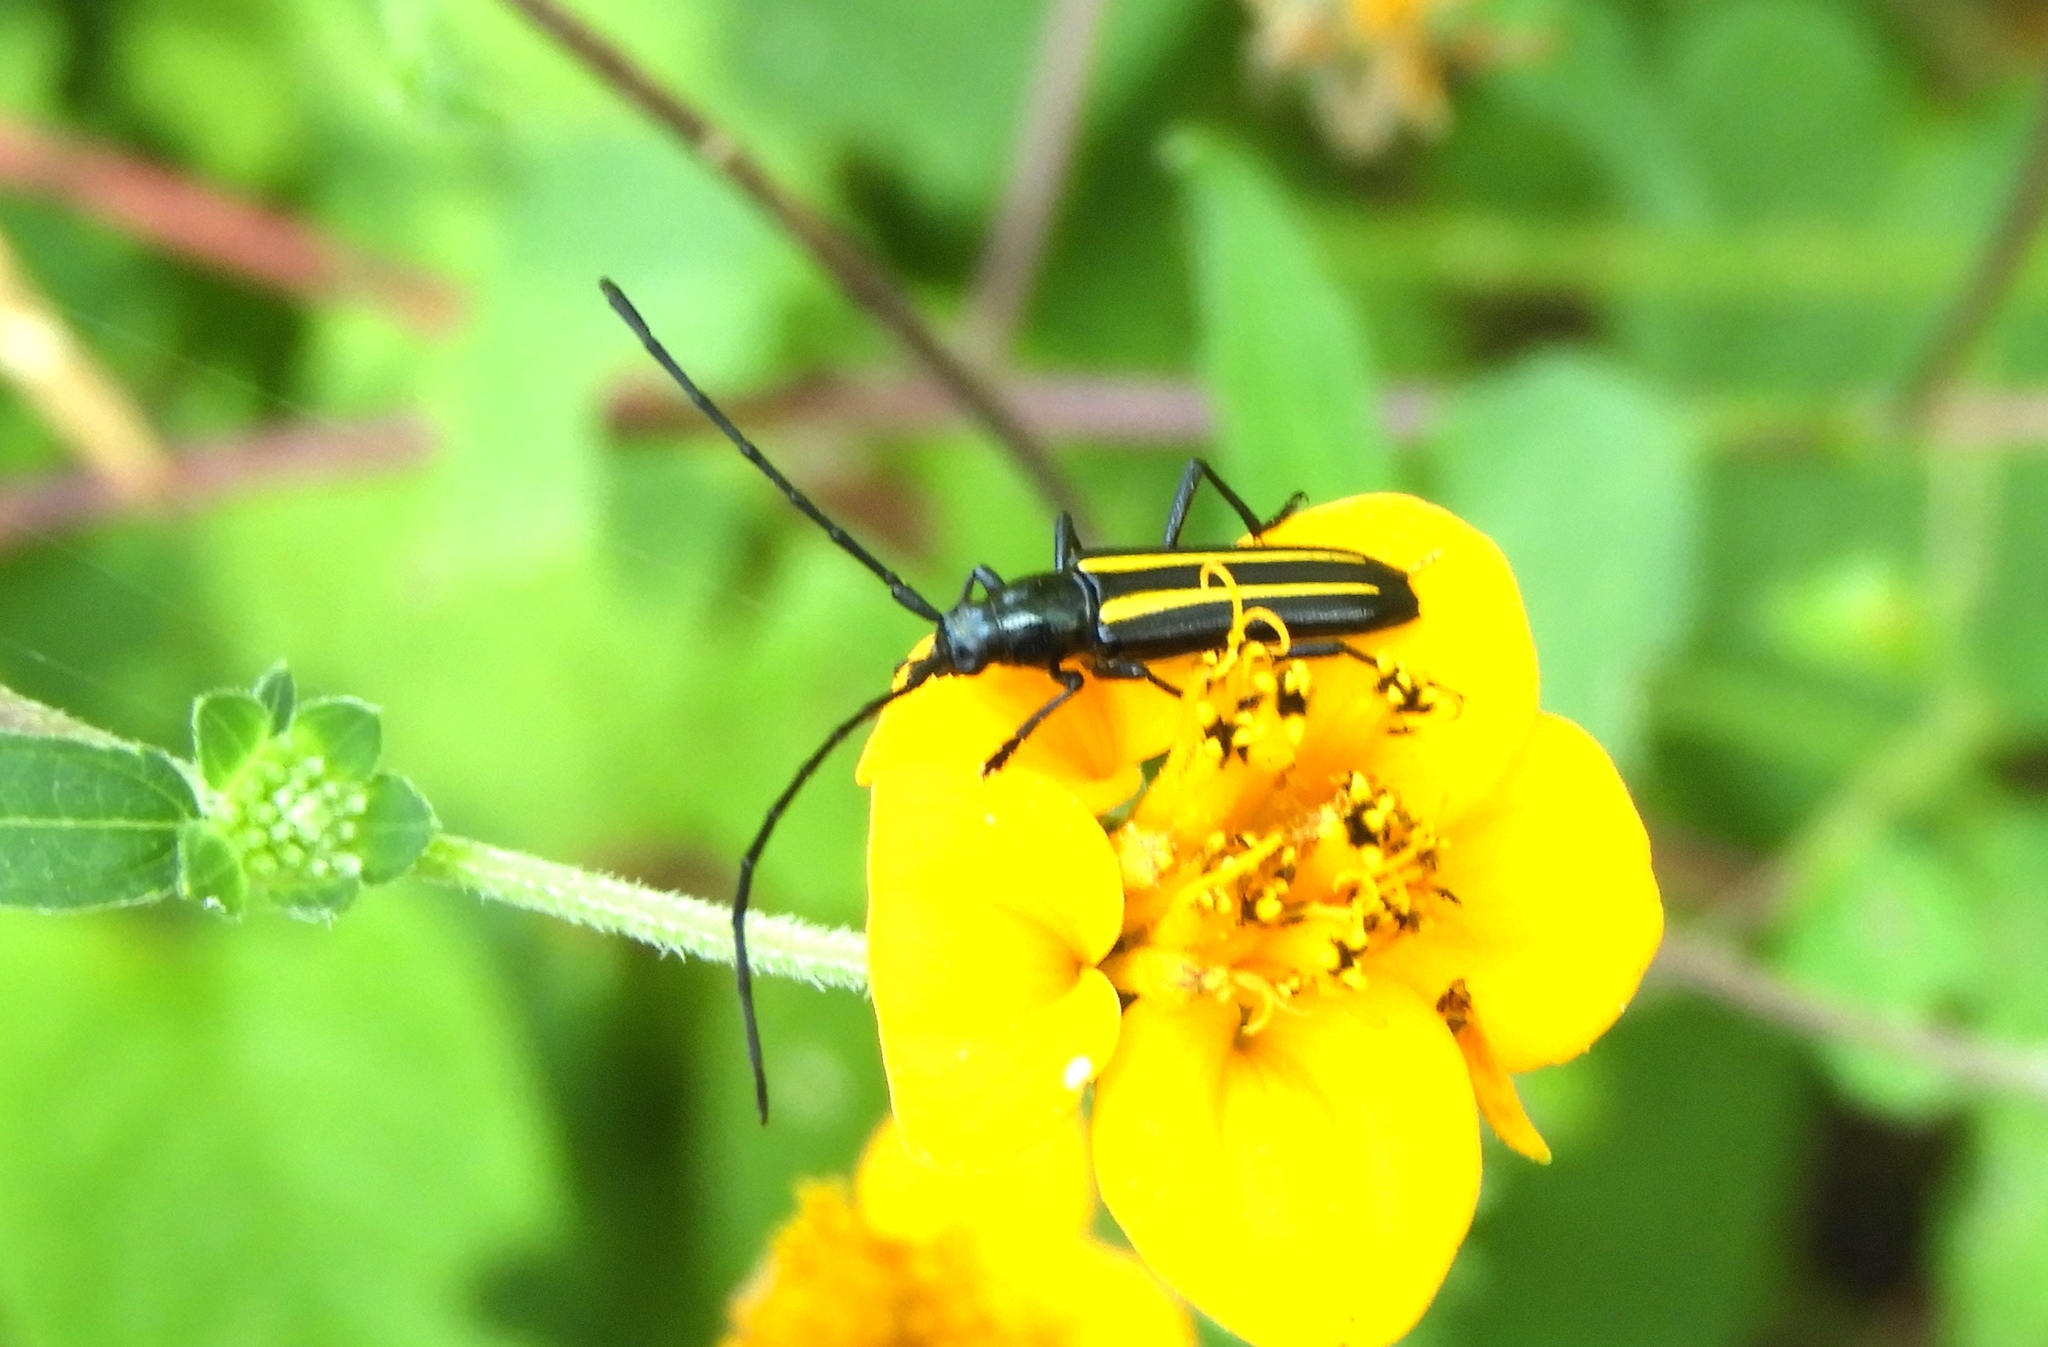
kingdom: Animalia
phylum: Arthropoda
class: Insecta
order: Coleoptera
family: Cerambycidae
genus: Lophalia
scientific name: Lophalia prolata
